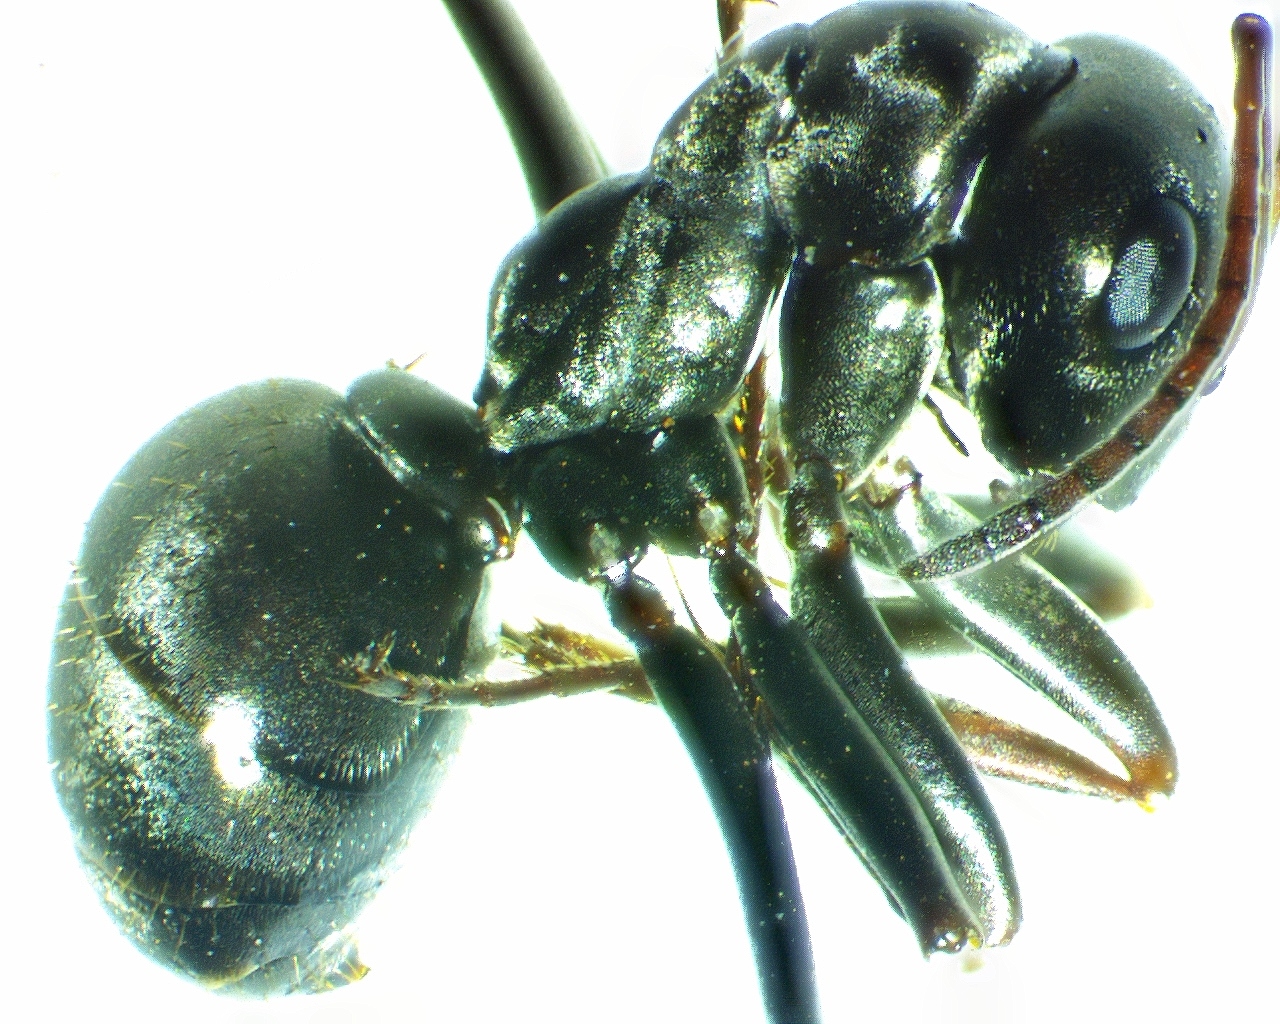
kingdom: Animalia
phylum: Arthropoda
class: Insecta
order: Hymenoptera
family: Formicidae
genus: Formica
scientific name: Formica subsericea
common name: Silky field ant
